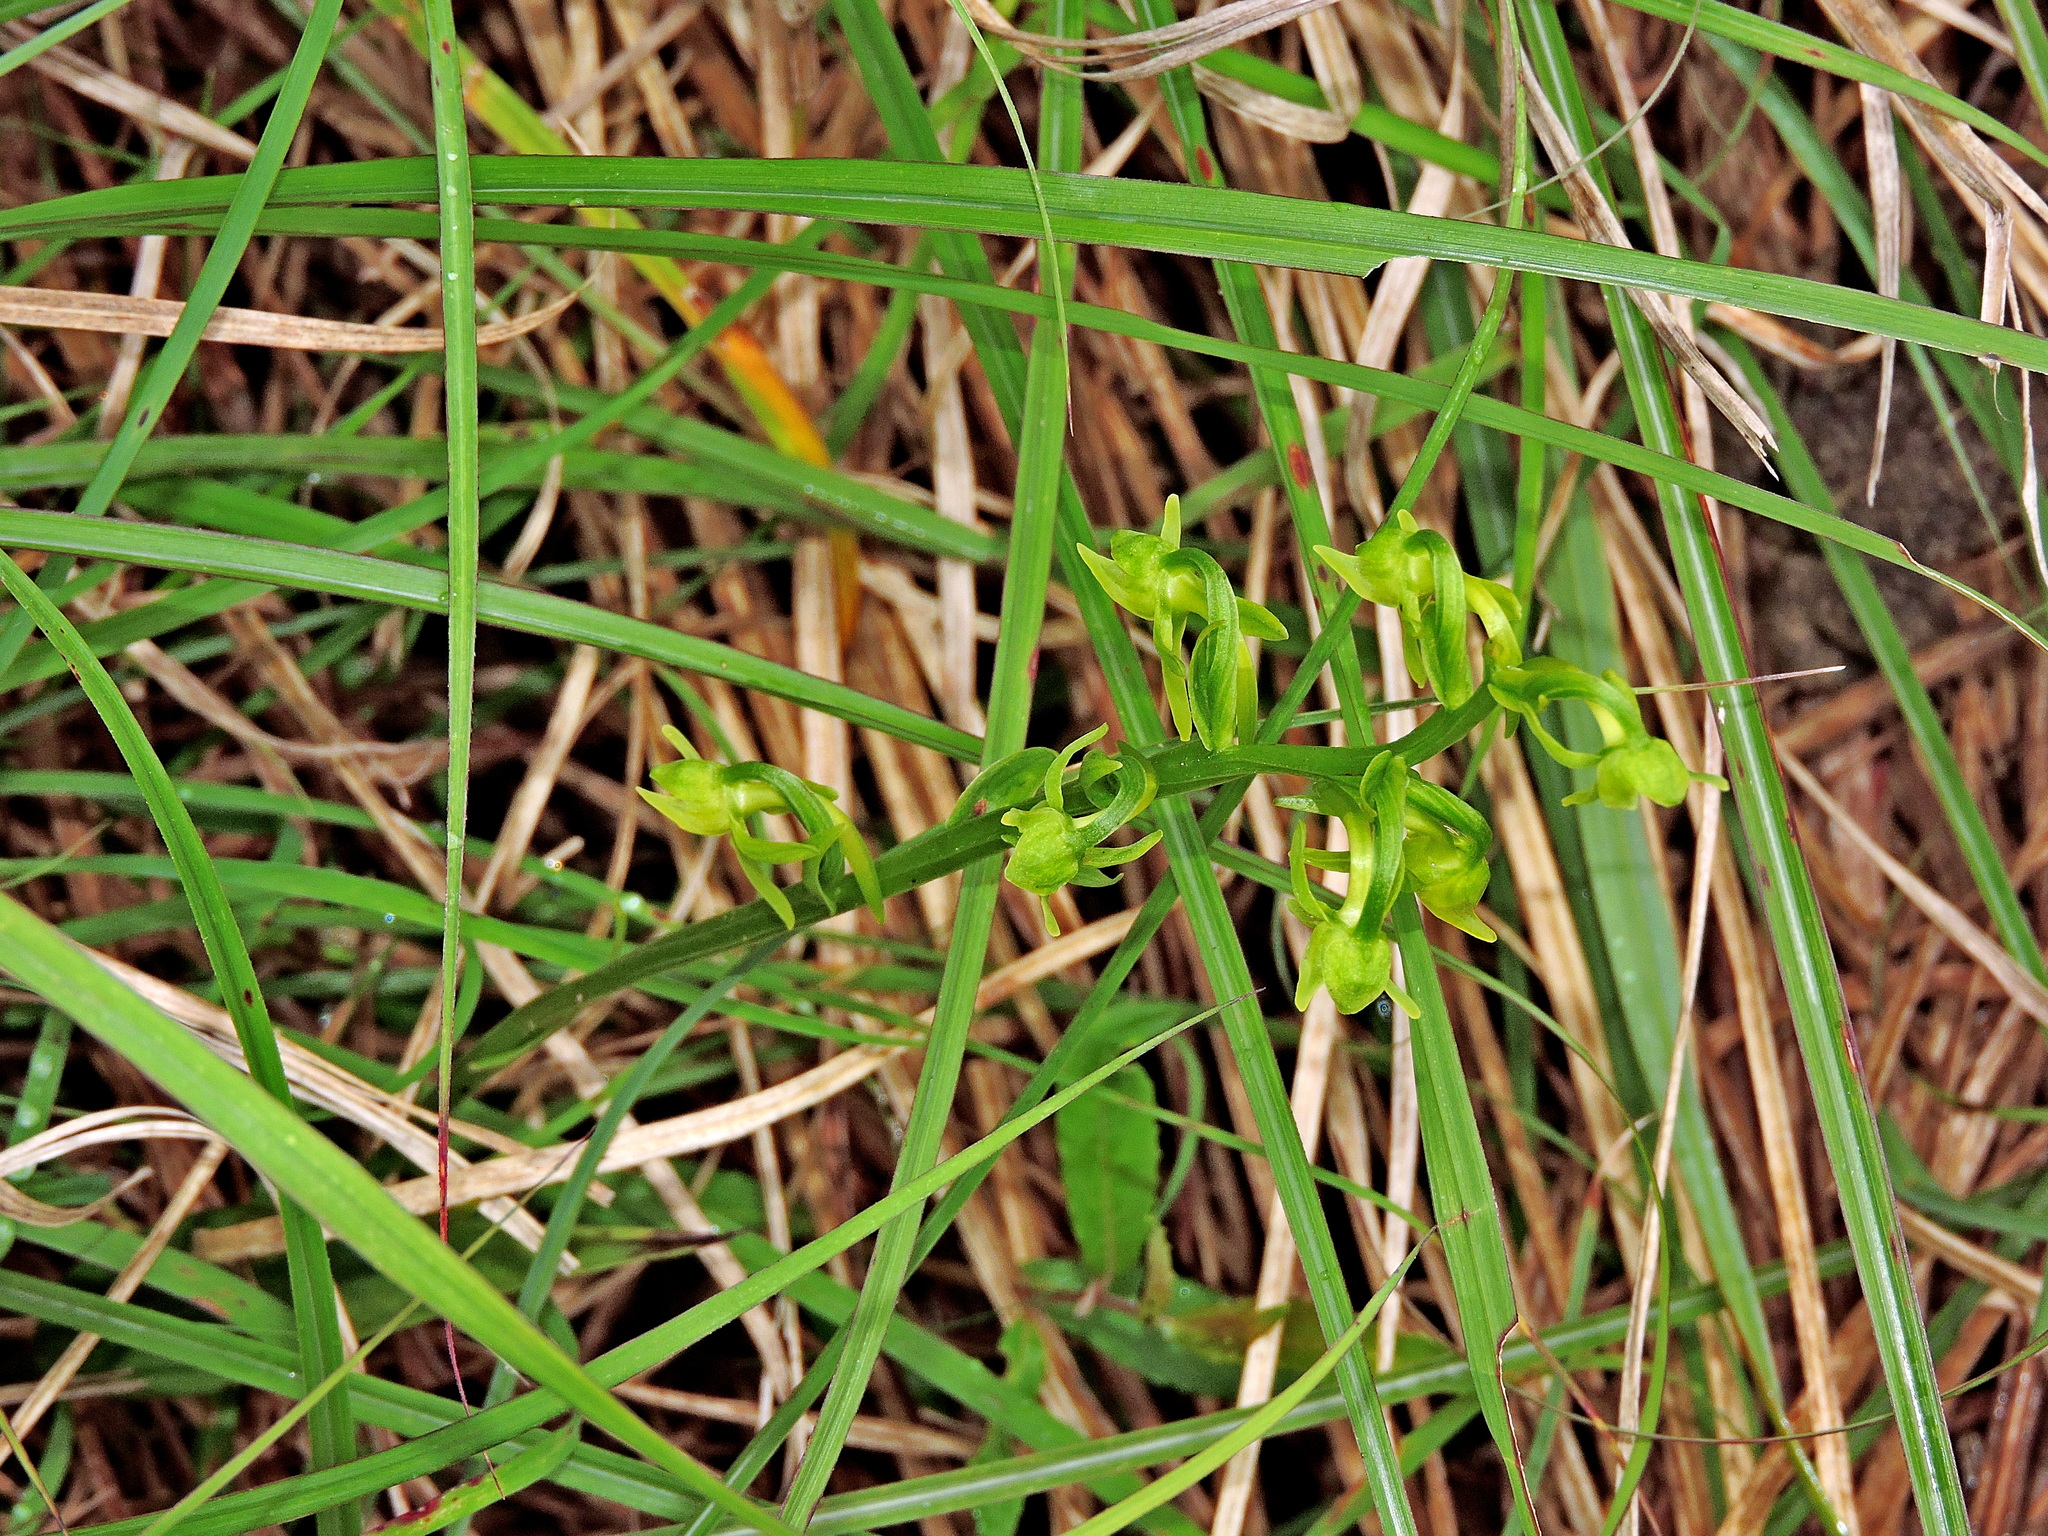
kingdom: Plantae
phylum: Tracheophyta
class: Liliopsida
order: Asparagales
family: Orchidaceae
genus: Platanthera
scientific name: Platanthera pachyglossa
